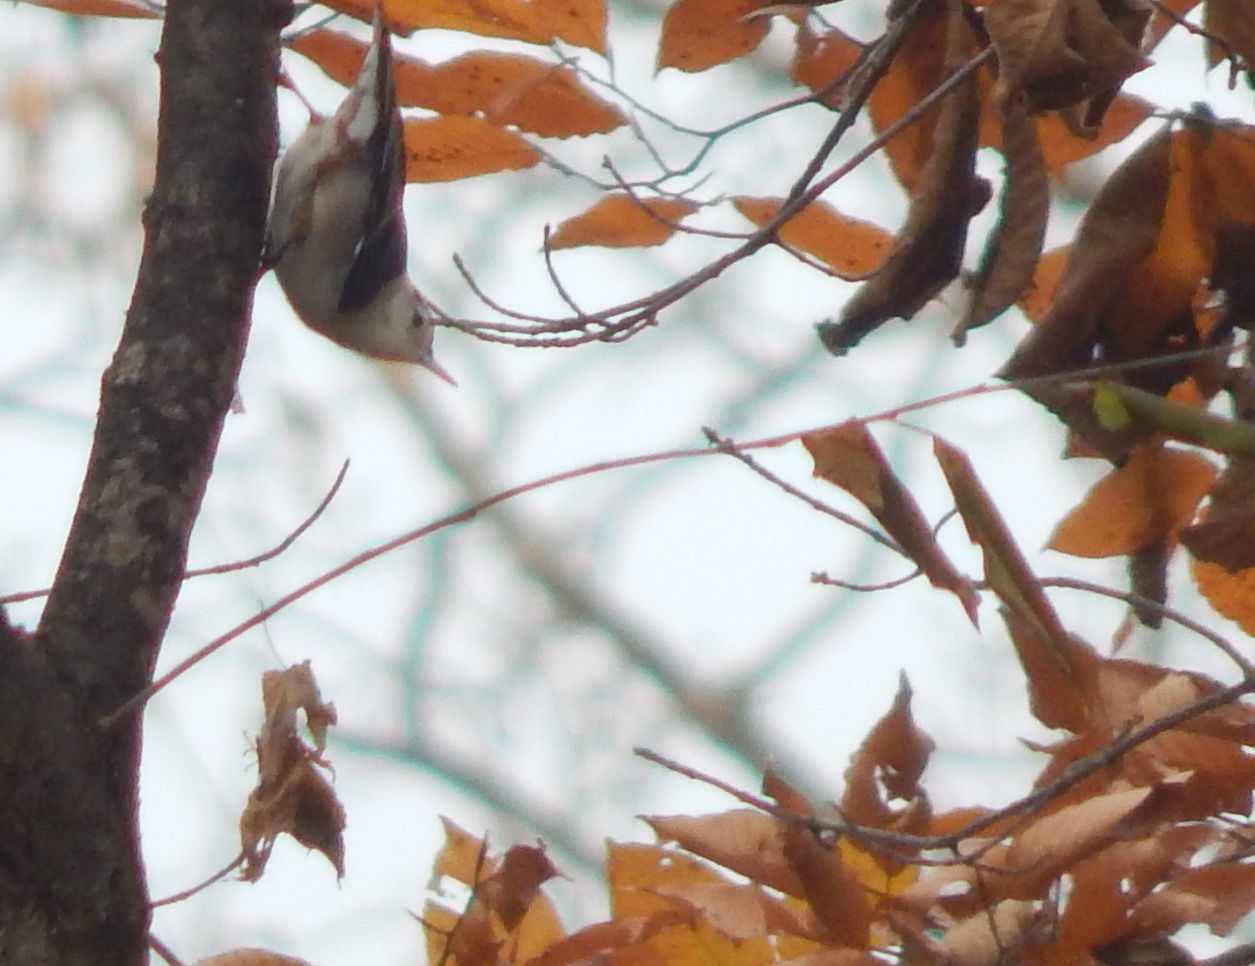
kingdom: Animalia
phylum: Chordata
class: Aves
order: Passeriformes
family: Sittidae
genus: Sitta
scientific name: Sitta carolinensis
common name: White-breasted nuthatch
